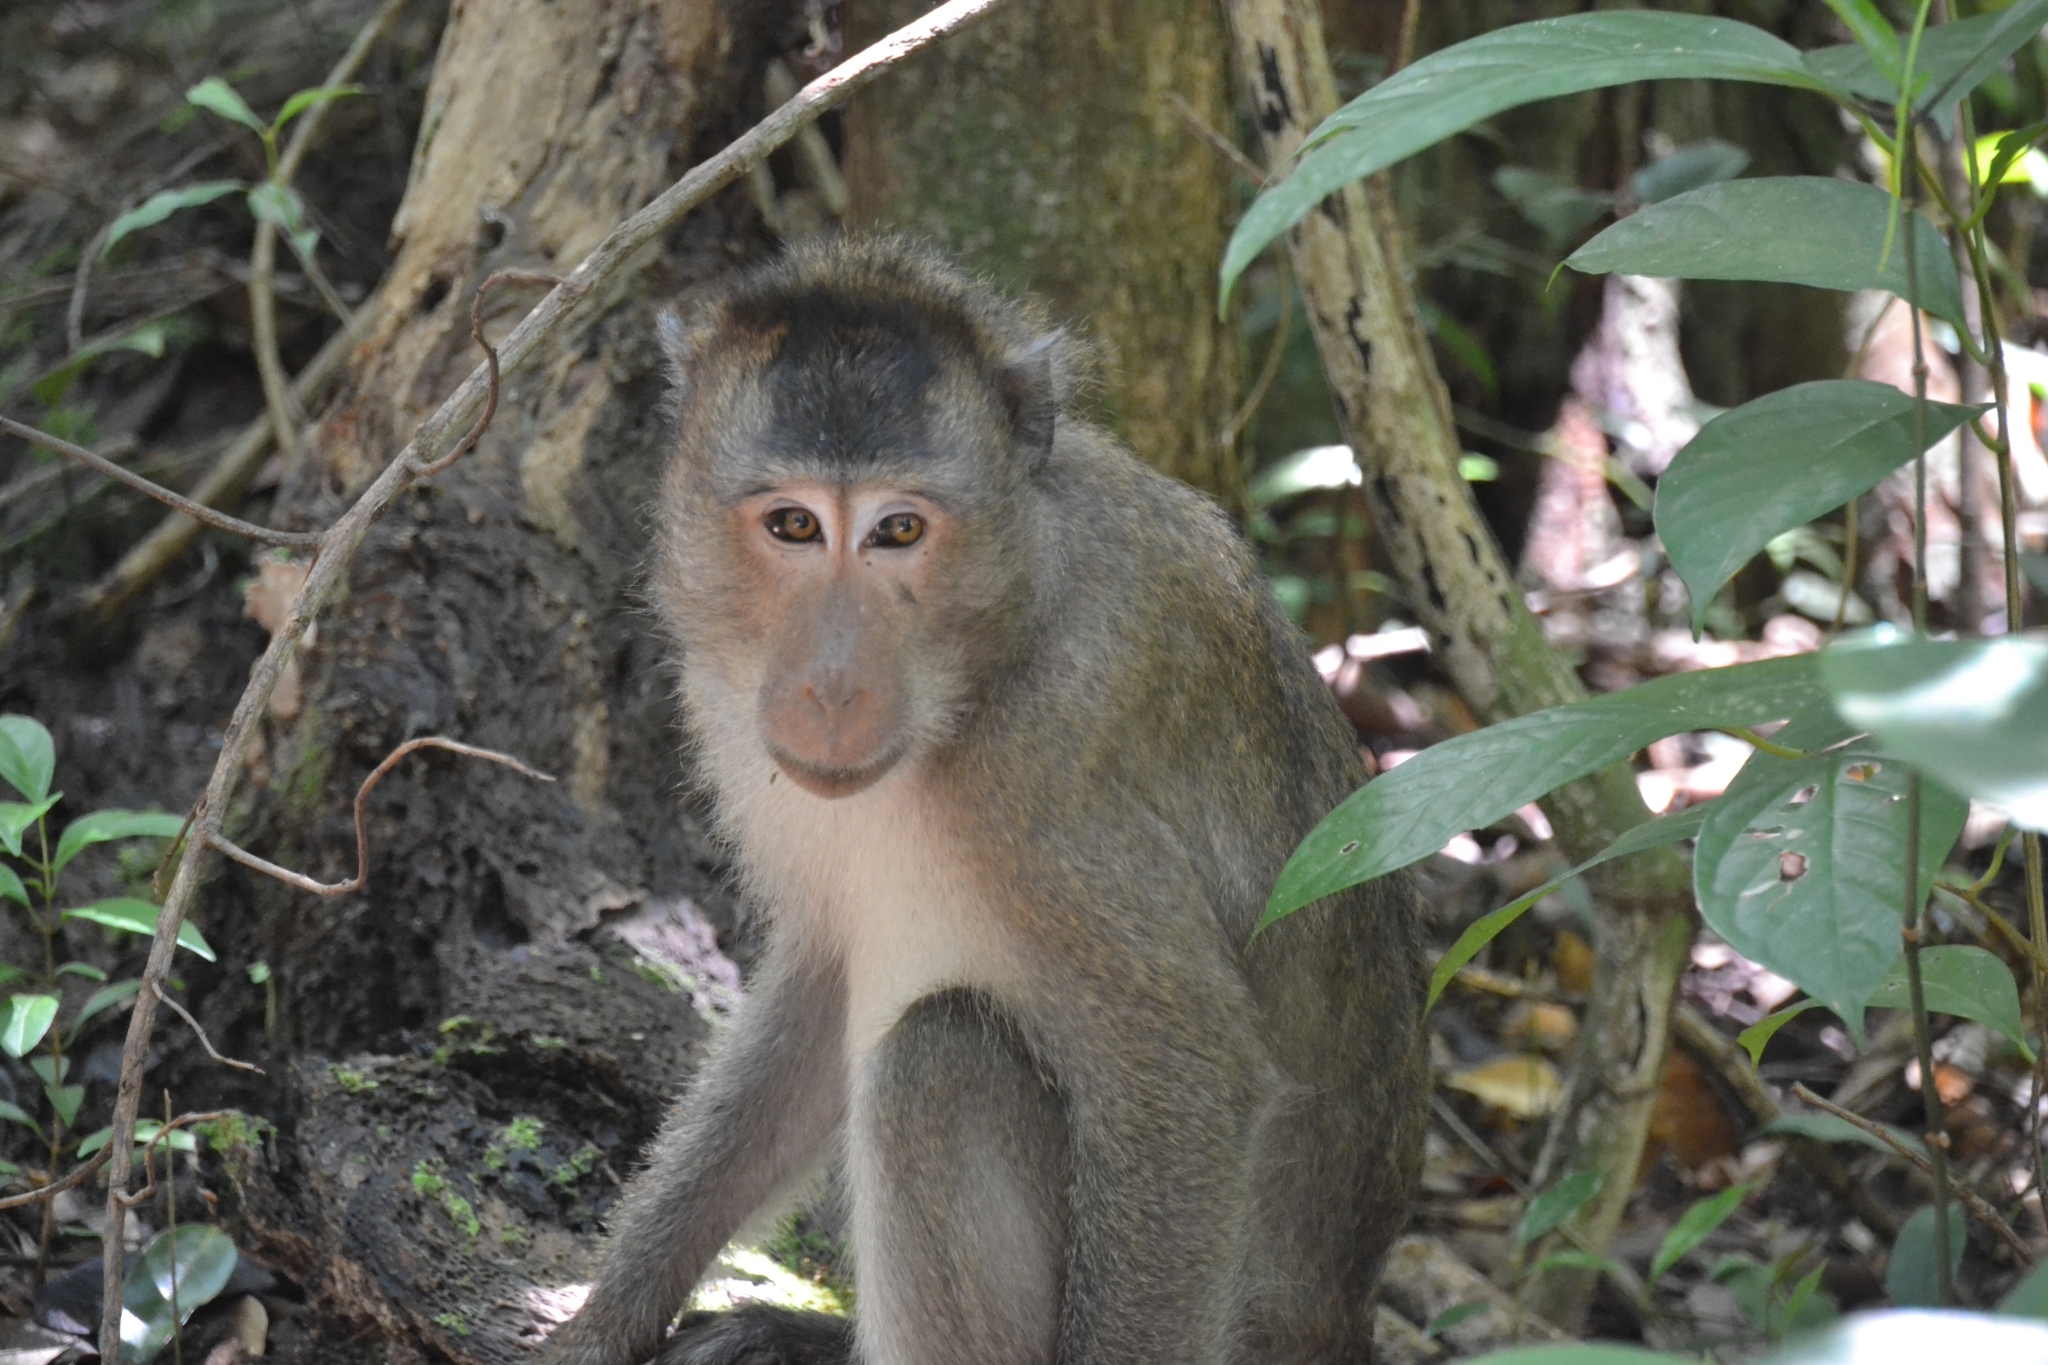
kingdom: Animalia
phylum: Chordata
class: Mammalia
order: Primates
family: Cercopithecidae
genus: Macaca
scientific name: Macaca fascicularis
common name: Crab-eating macaque
